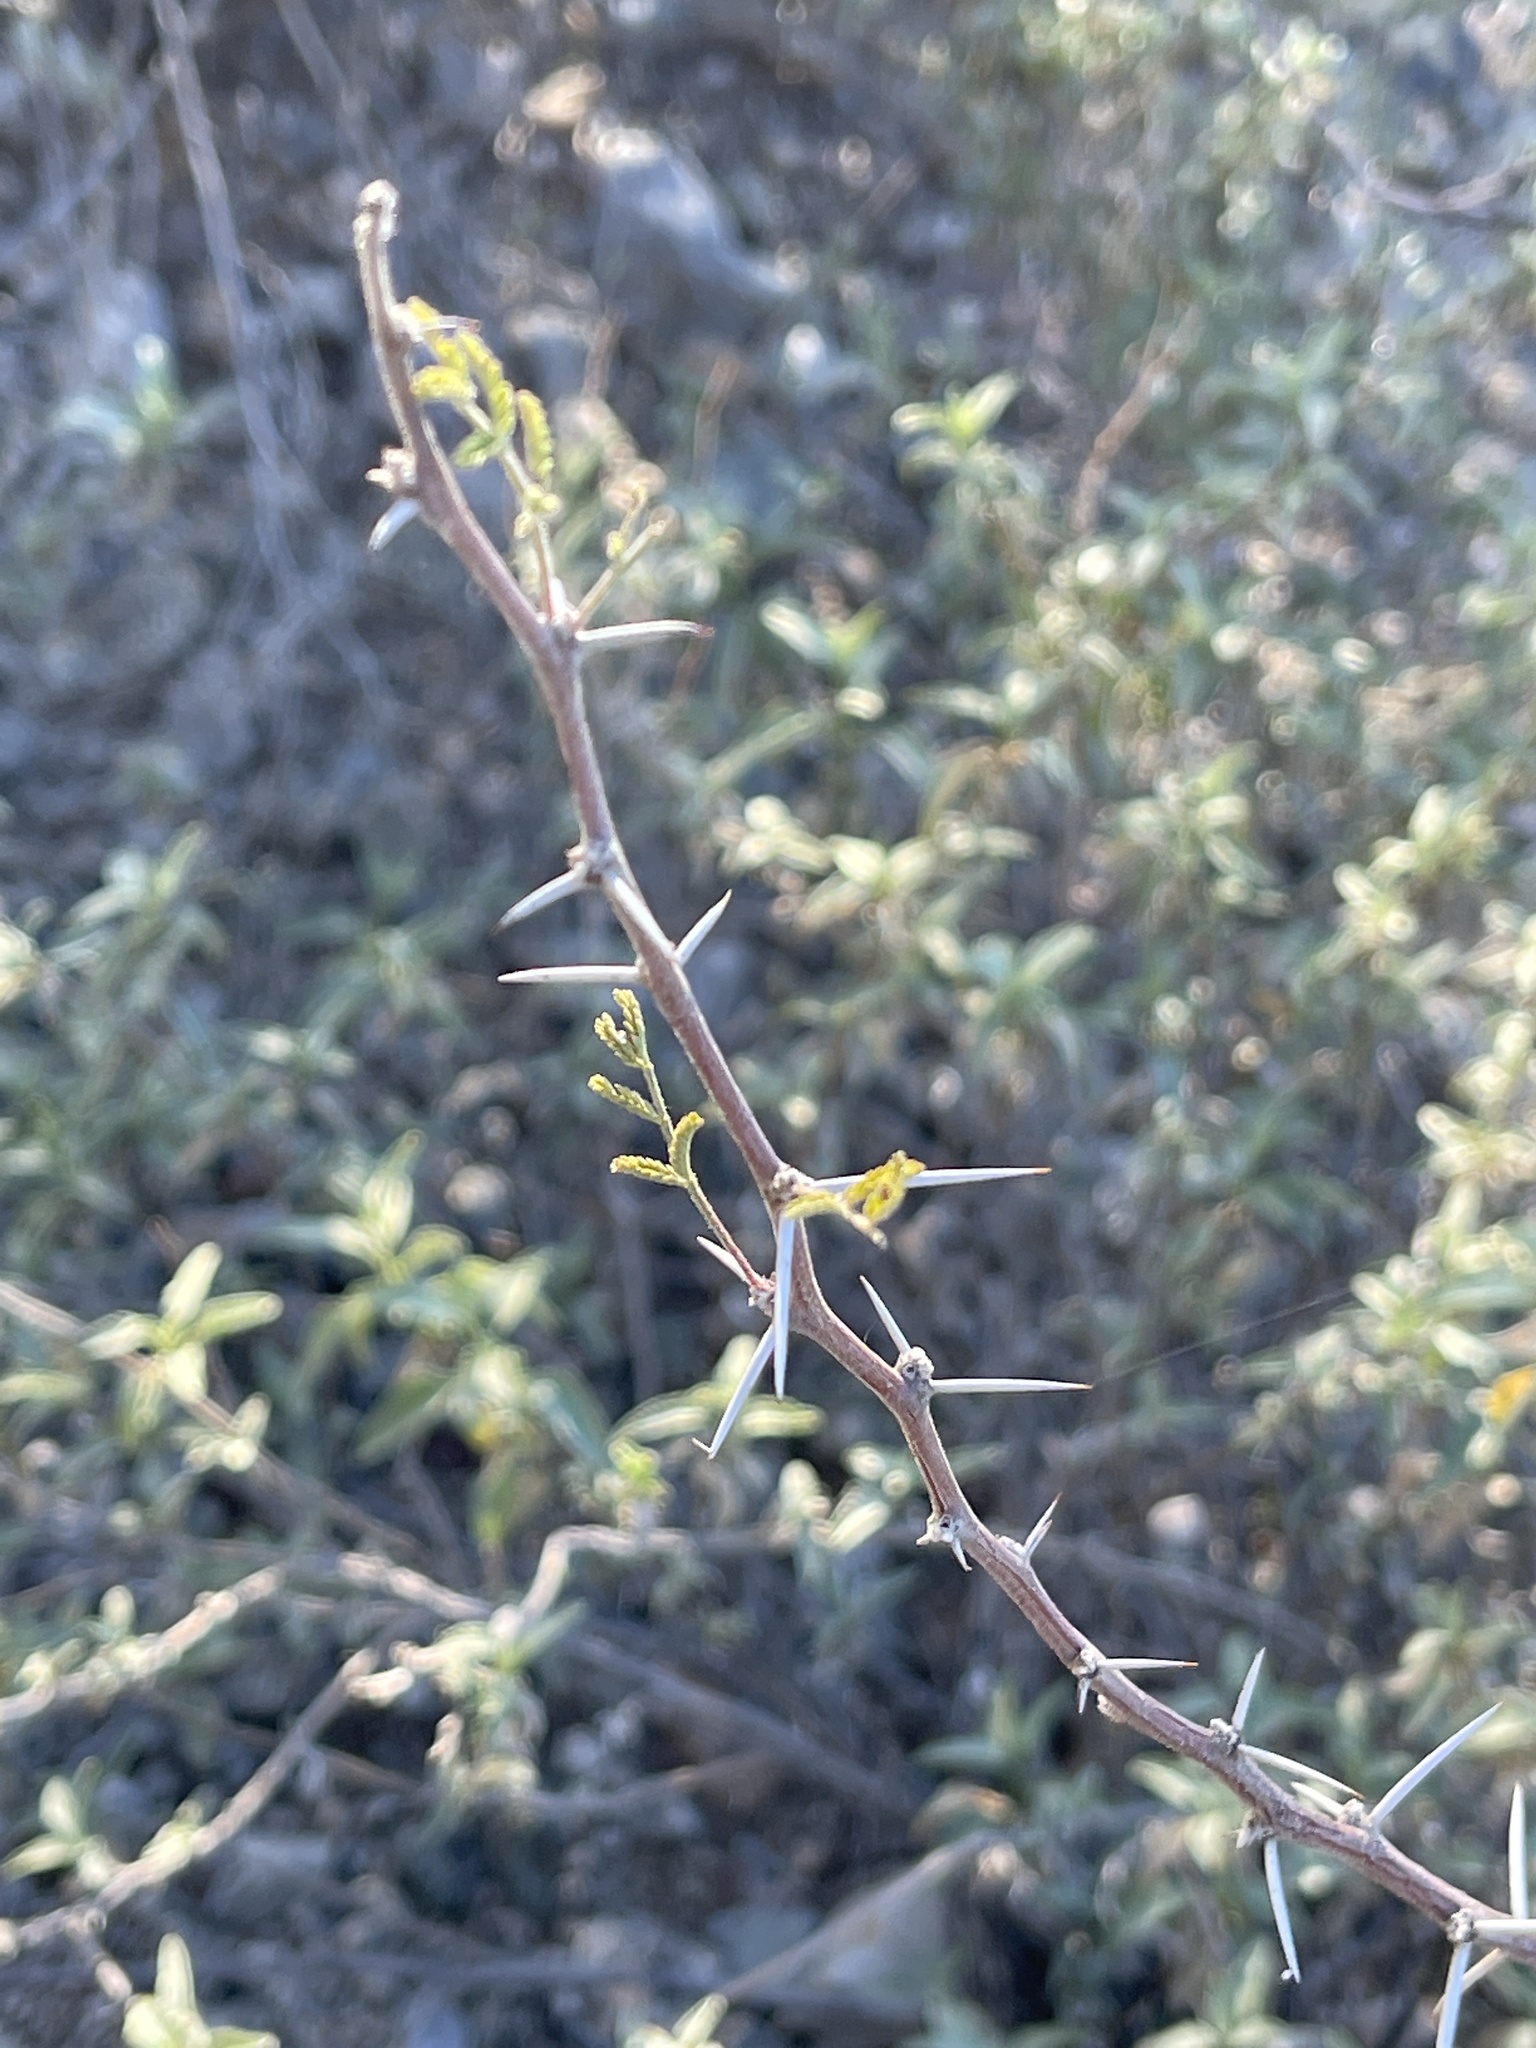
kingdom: Plantae
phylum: Tracheophyta
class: Magnoliopsida
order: Fabales
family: Fabaceae
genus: Vachellia
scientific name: Vachellia constricta
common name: Mescat acacia
